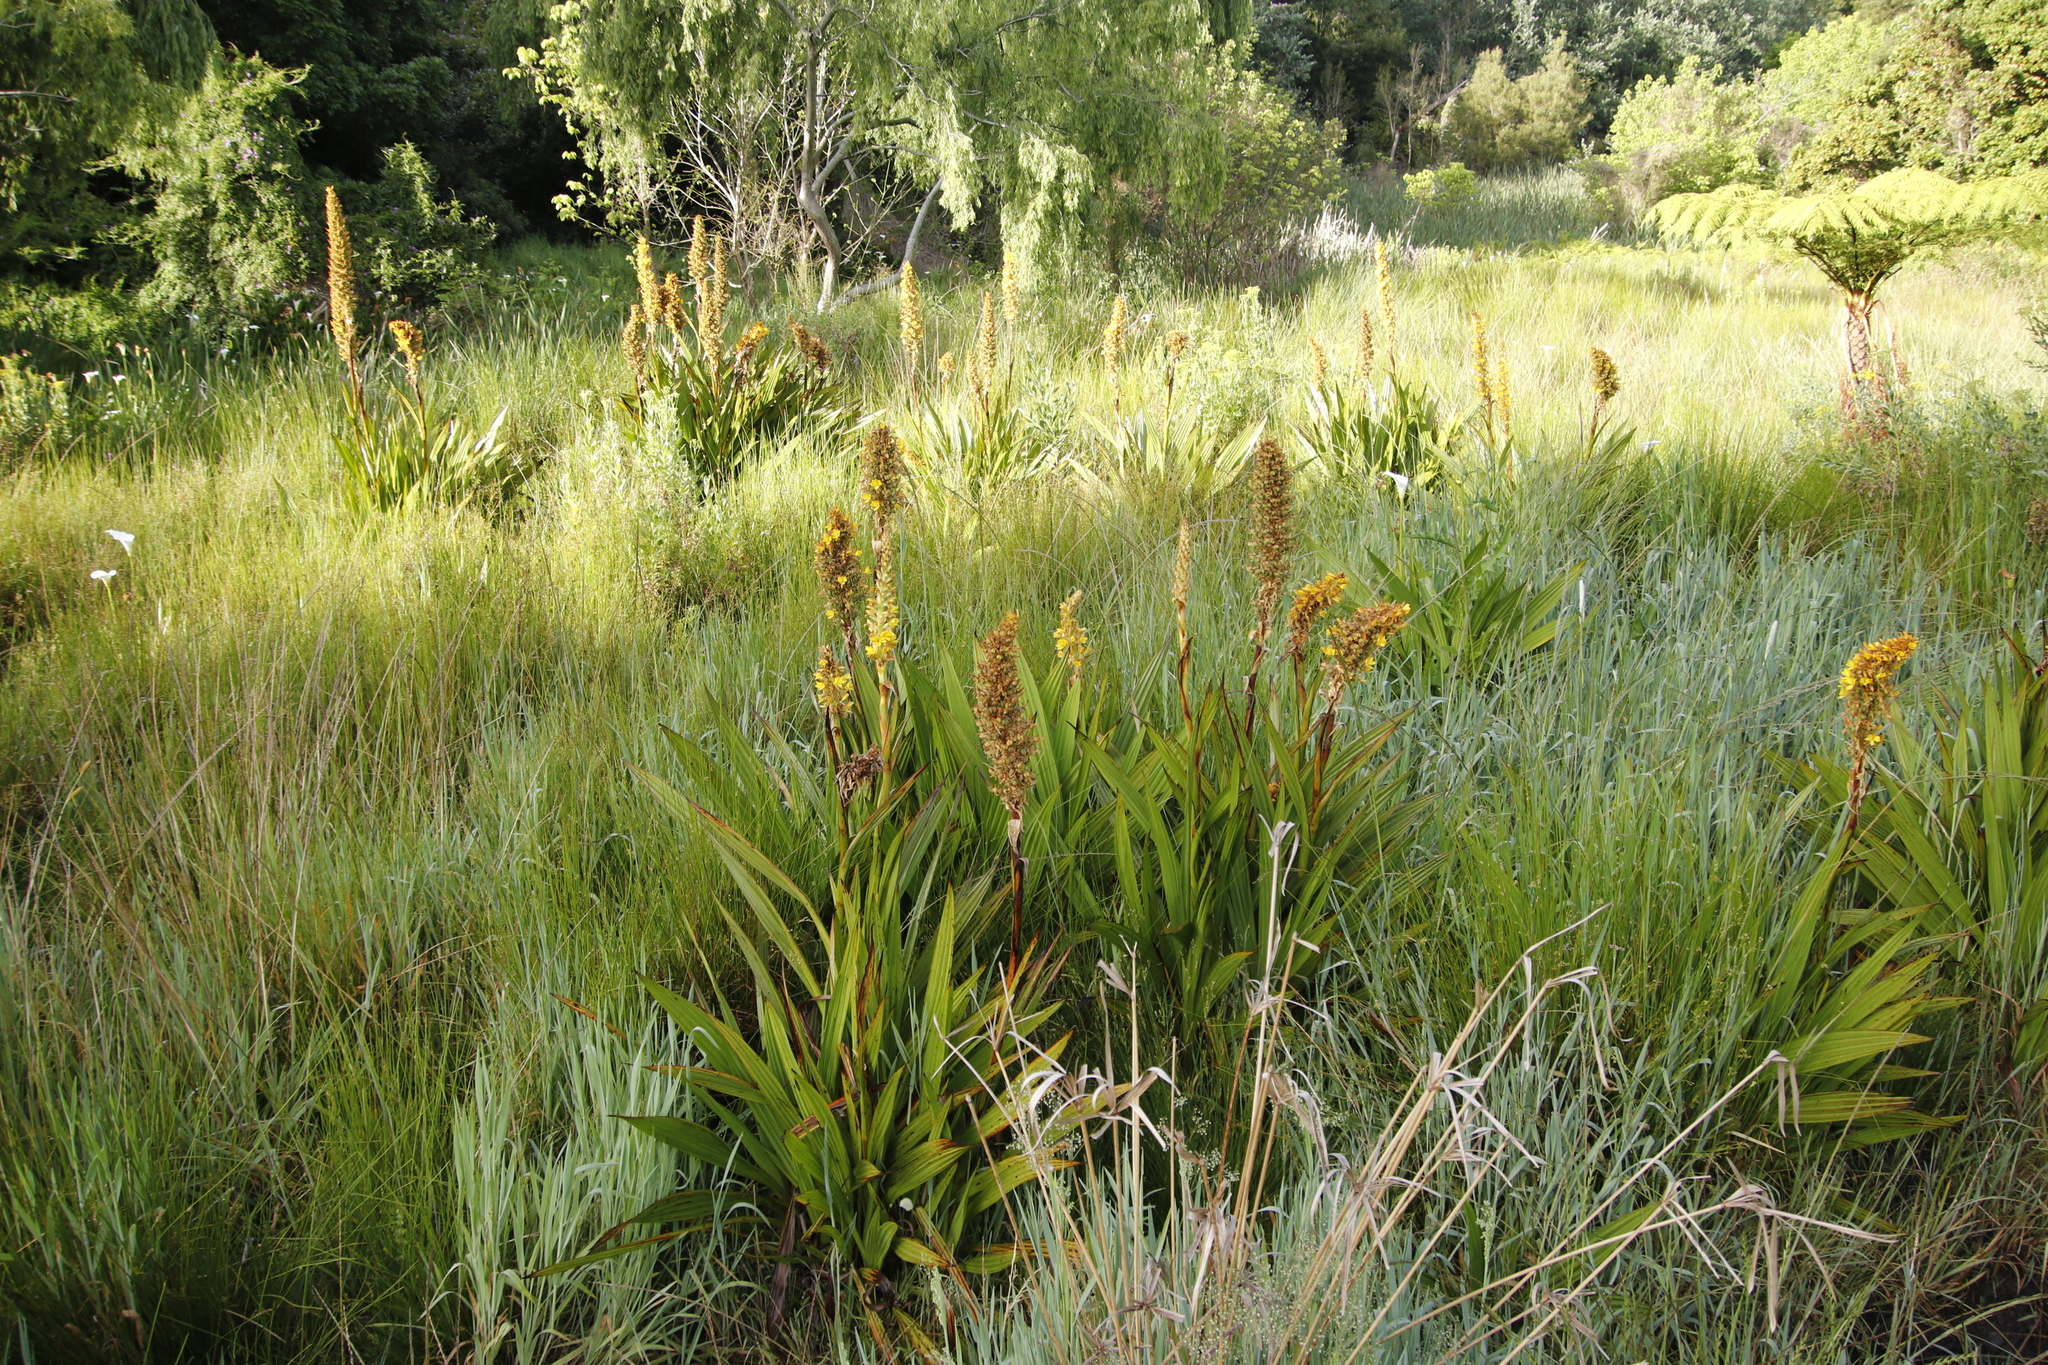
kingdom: Plantae
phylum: Tracheophyta
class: Liliopsida
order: Commelinales
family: Haemodoraceae
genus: Wachendorfia
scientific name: Wachendorfia thyrsiflora
